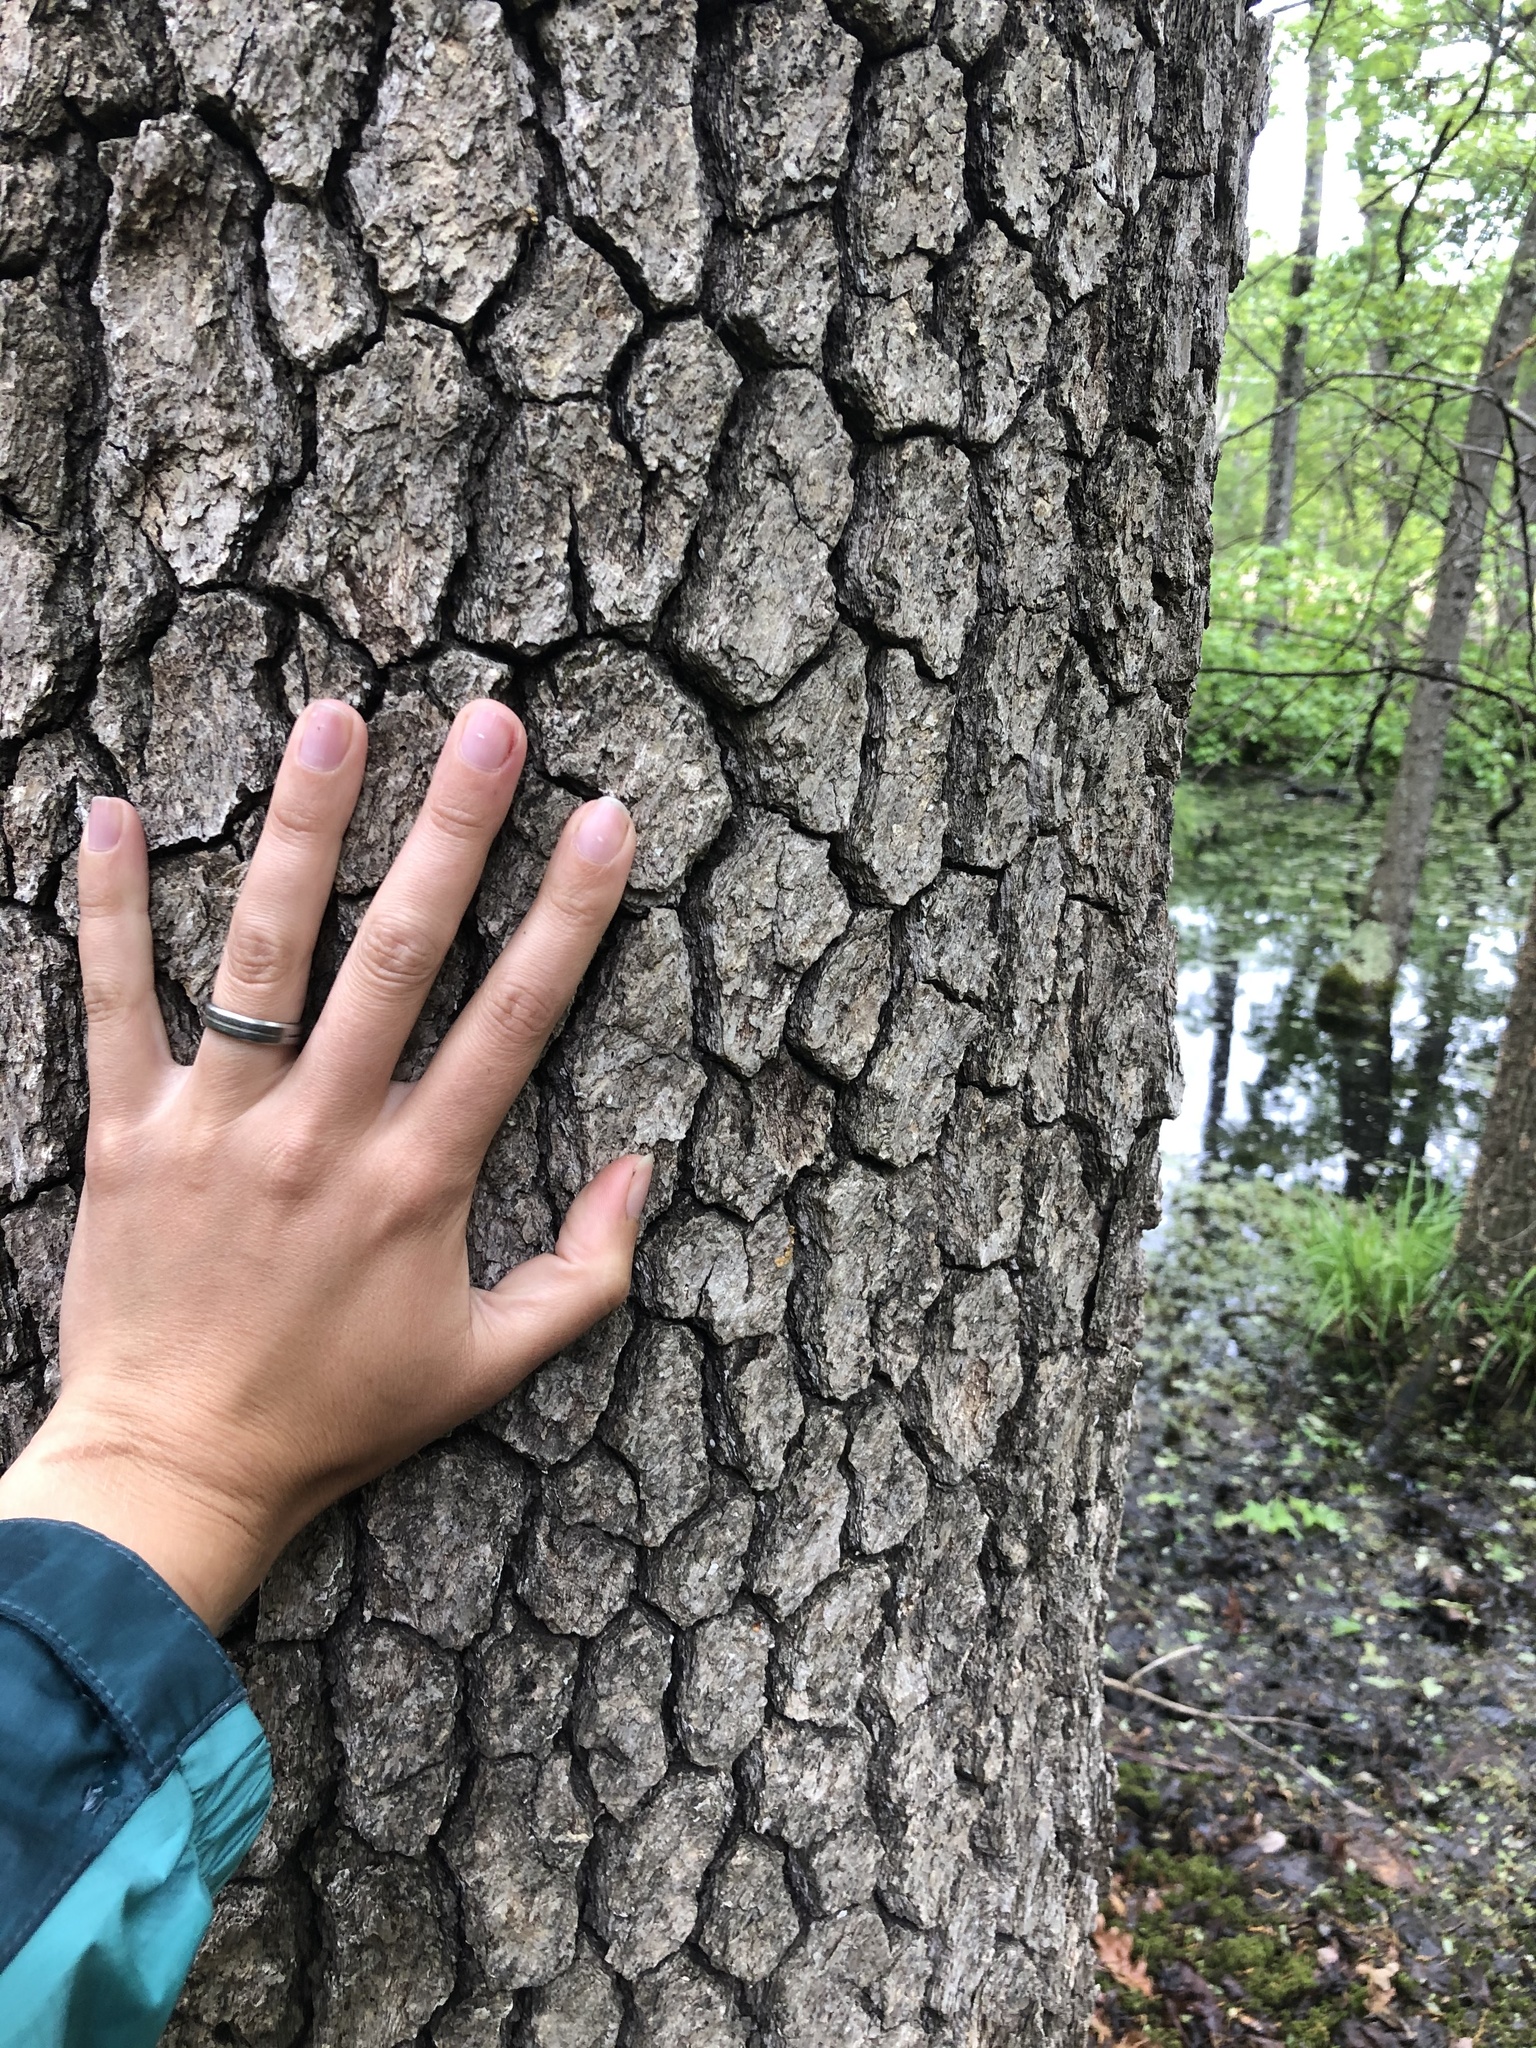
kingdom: Plantae
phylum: Tracheophyta
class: Magnoliopsida
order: Cornales
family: Nyssaceae
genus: Nyssa
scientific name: Nyssa sylvatica
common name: Black tupelo
